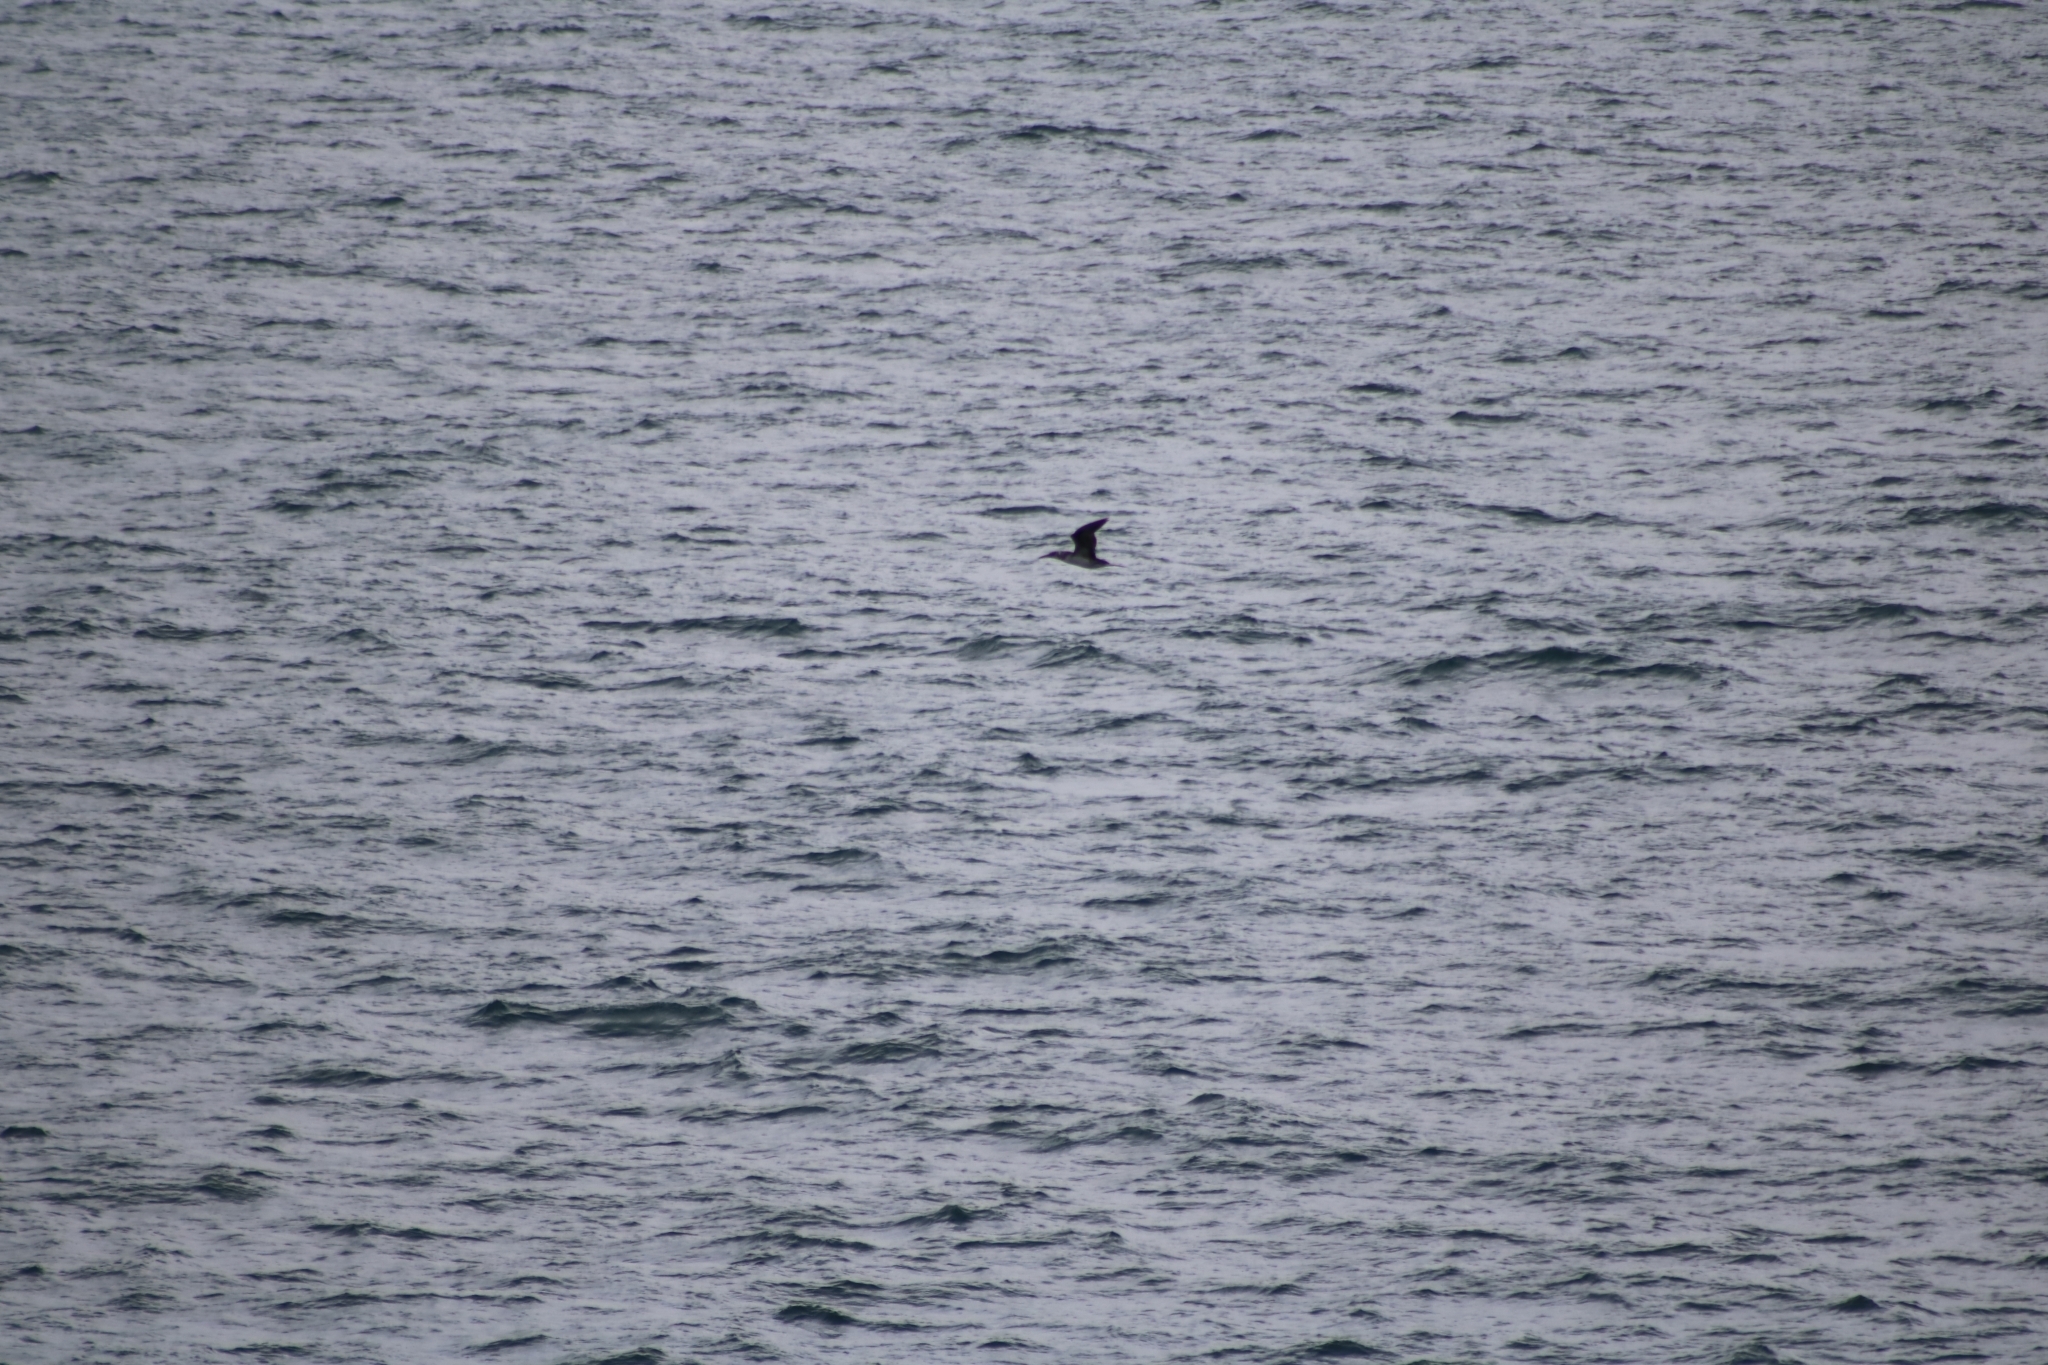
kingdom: Animalia
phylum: Chordata
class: Aves
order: Suliformes
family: Sulidae
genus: Morus
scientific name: Morus bassanus
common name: Northern gannet
